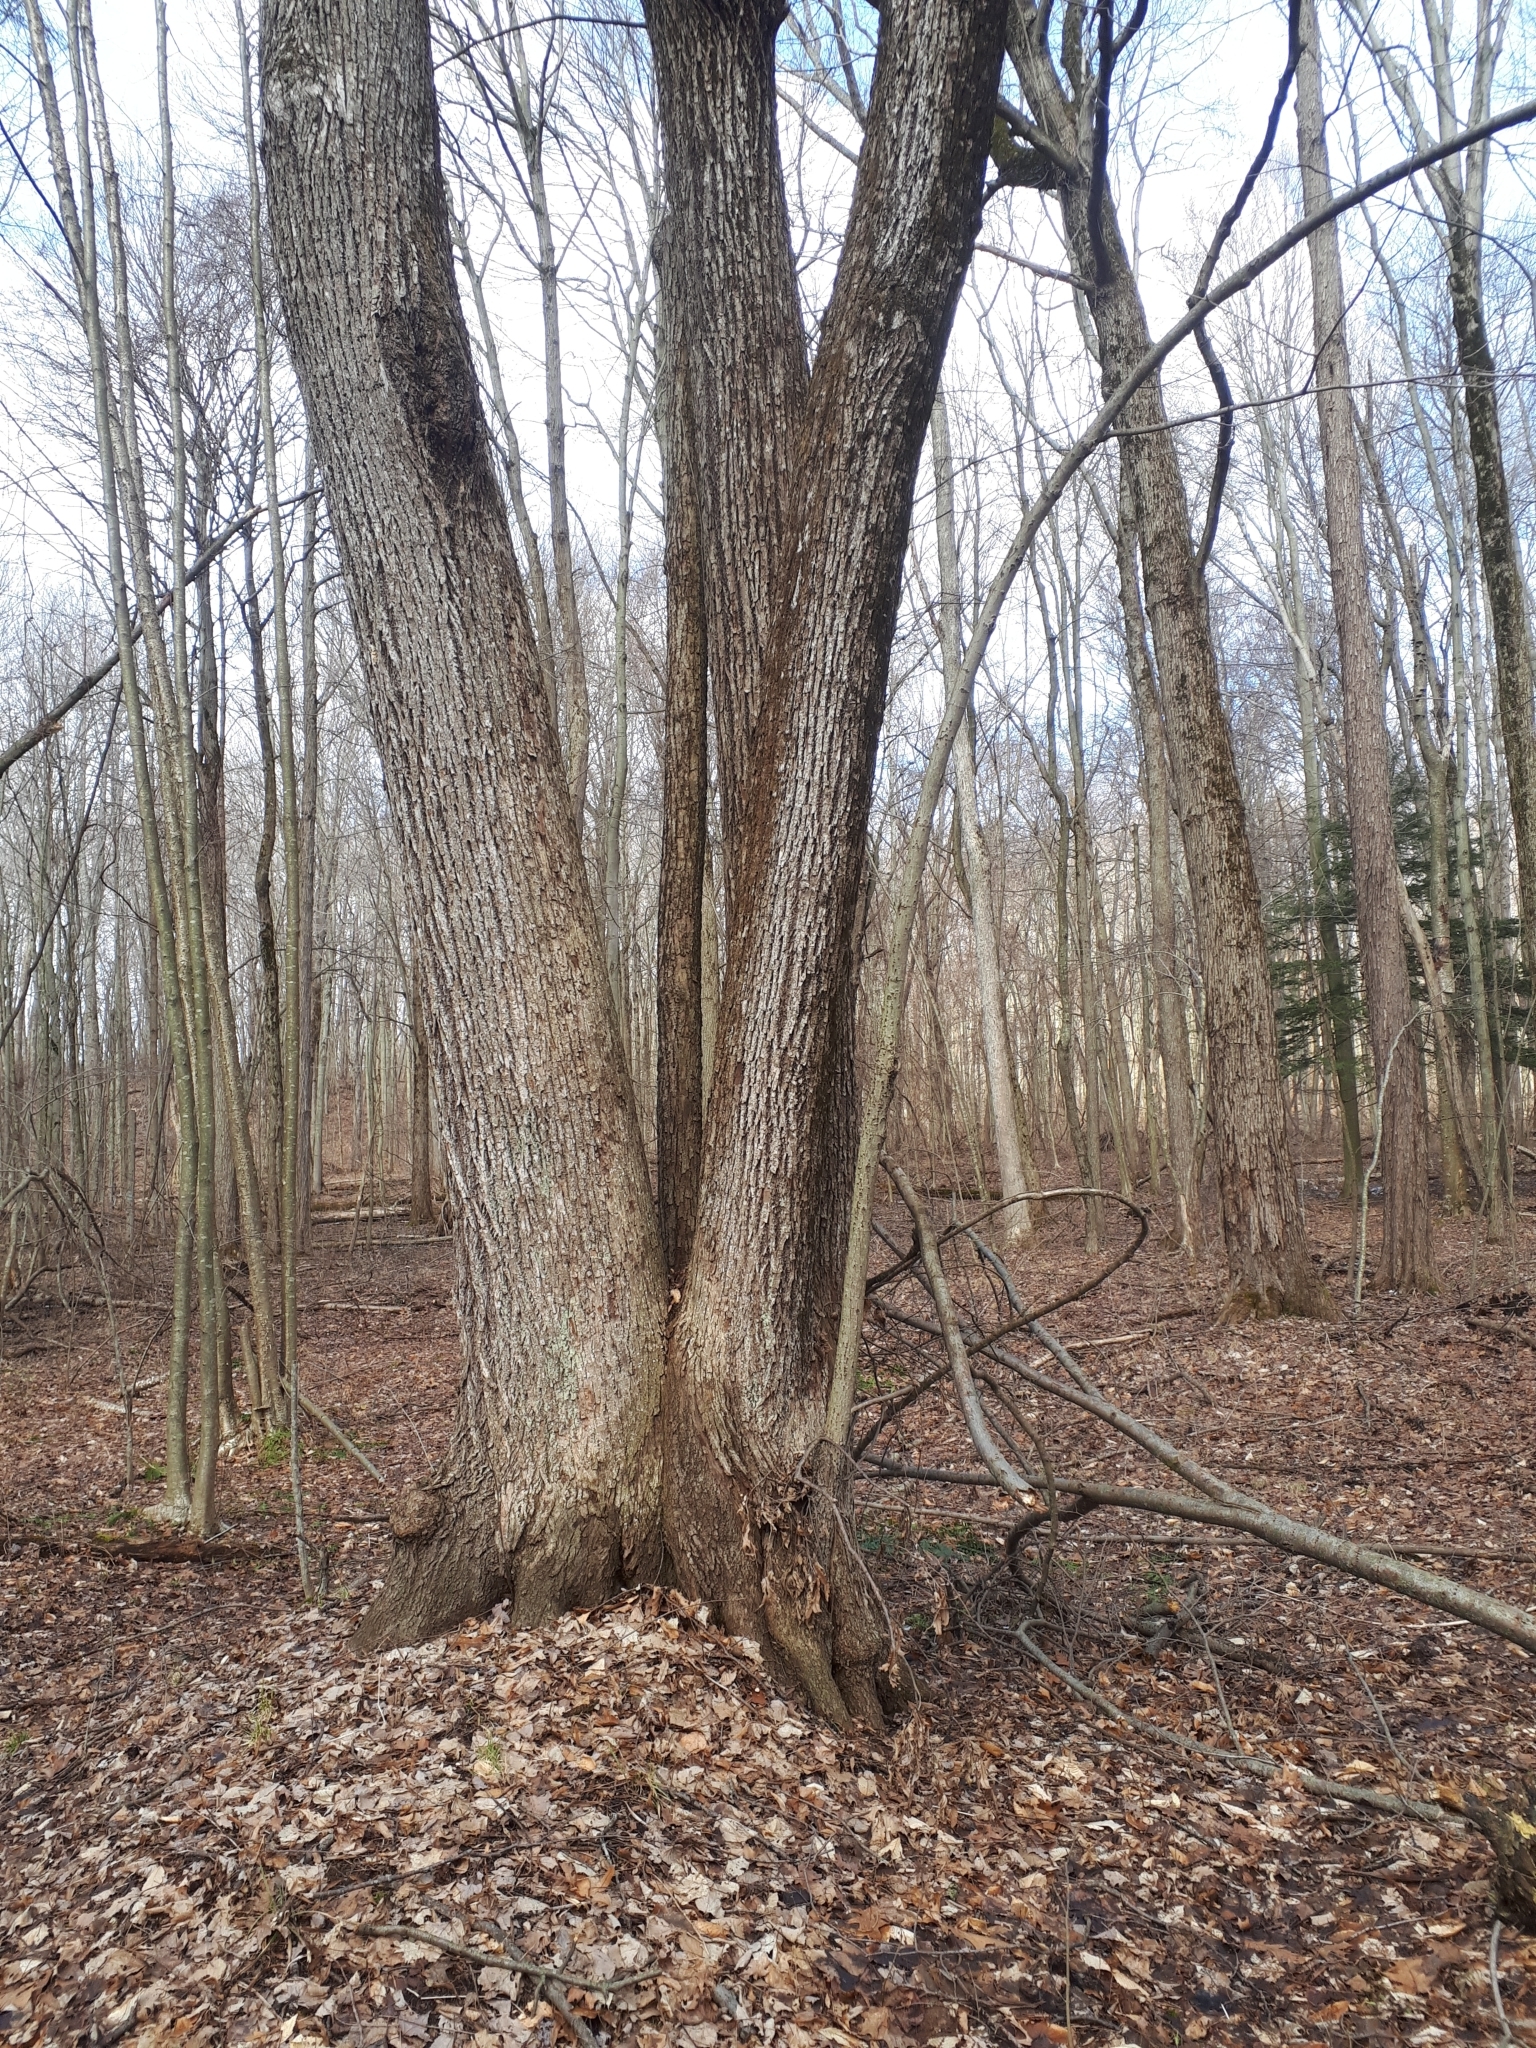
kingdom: Plantae
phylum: Tracheophyta
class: Magnoliopsida
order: Malvales
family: Malvaceae
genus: Tilia
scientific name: Tilia americana
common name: Basswood
